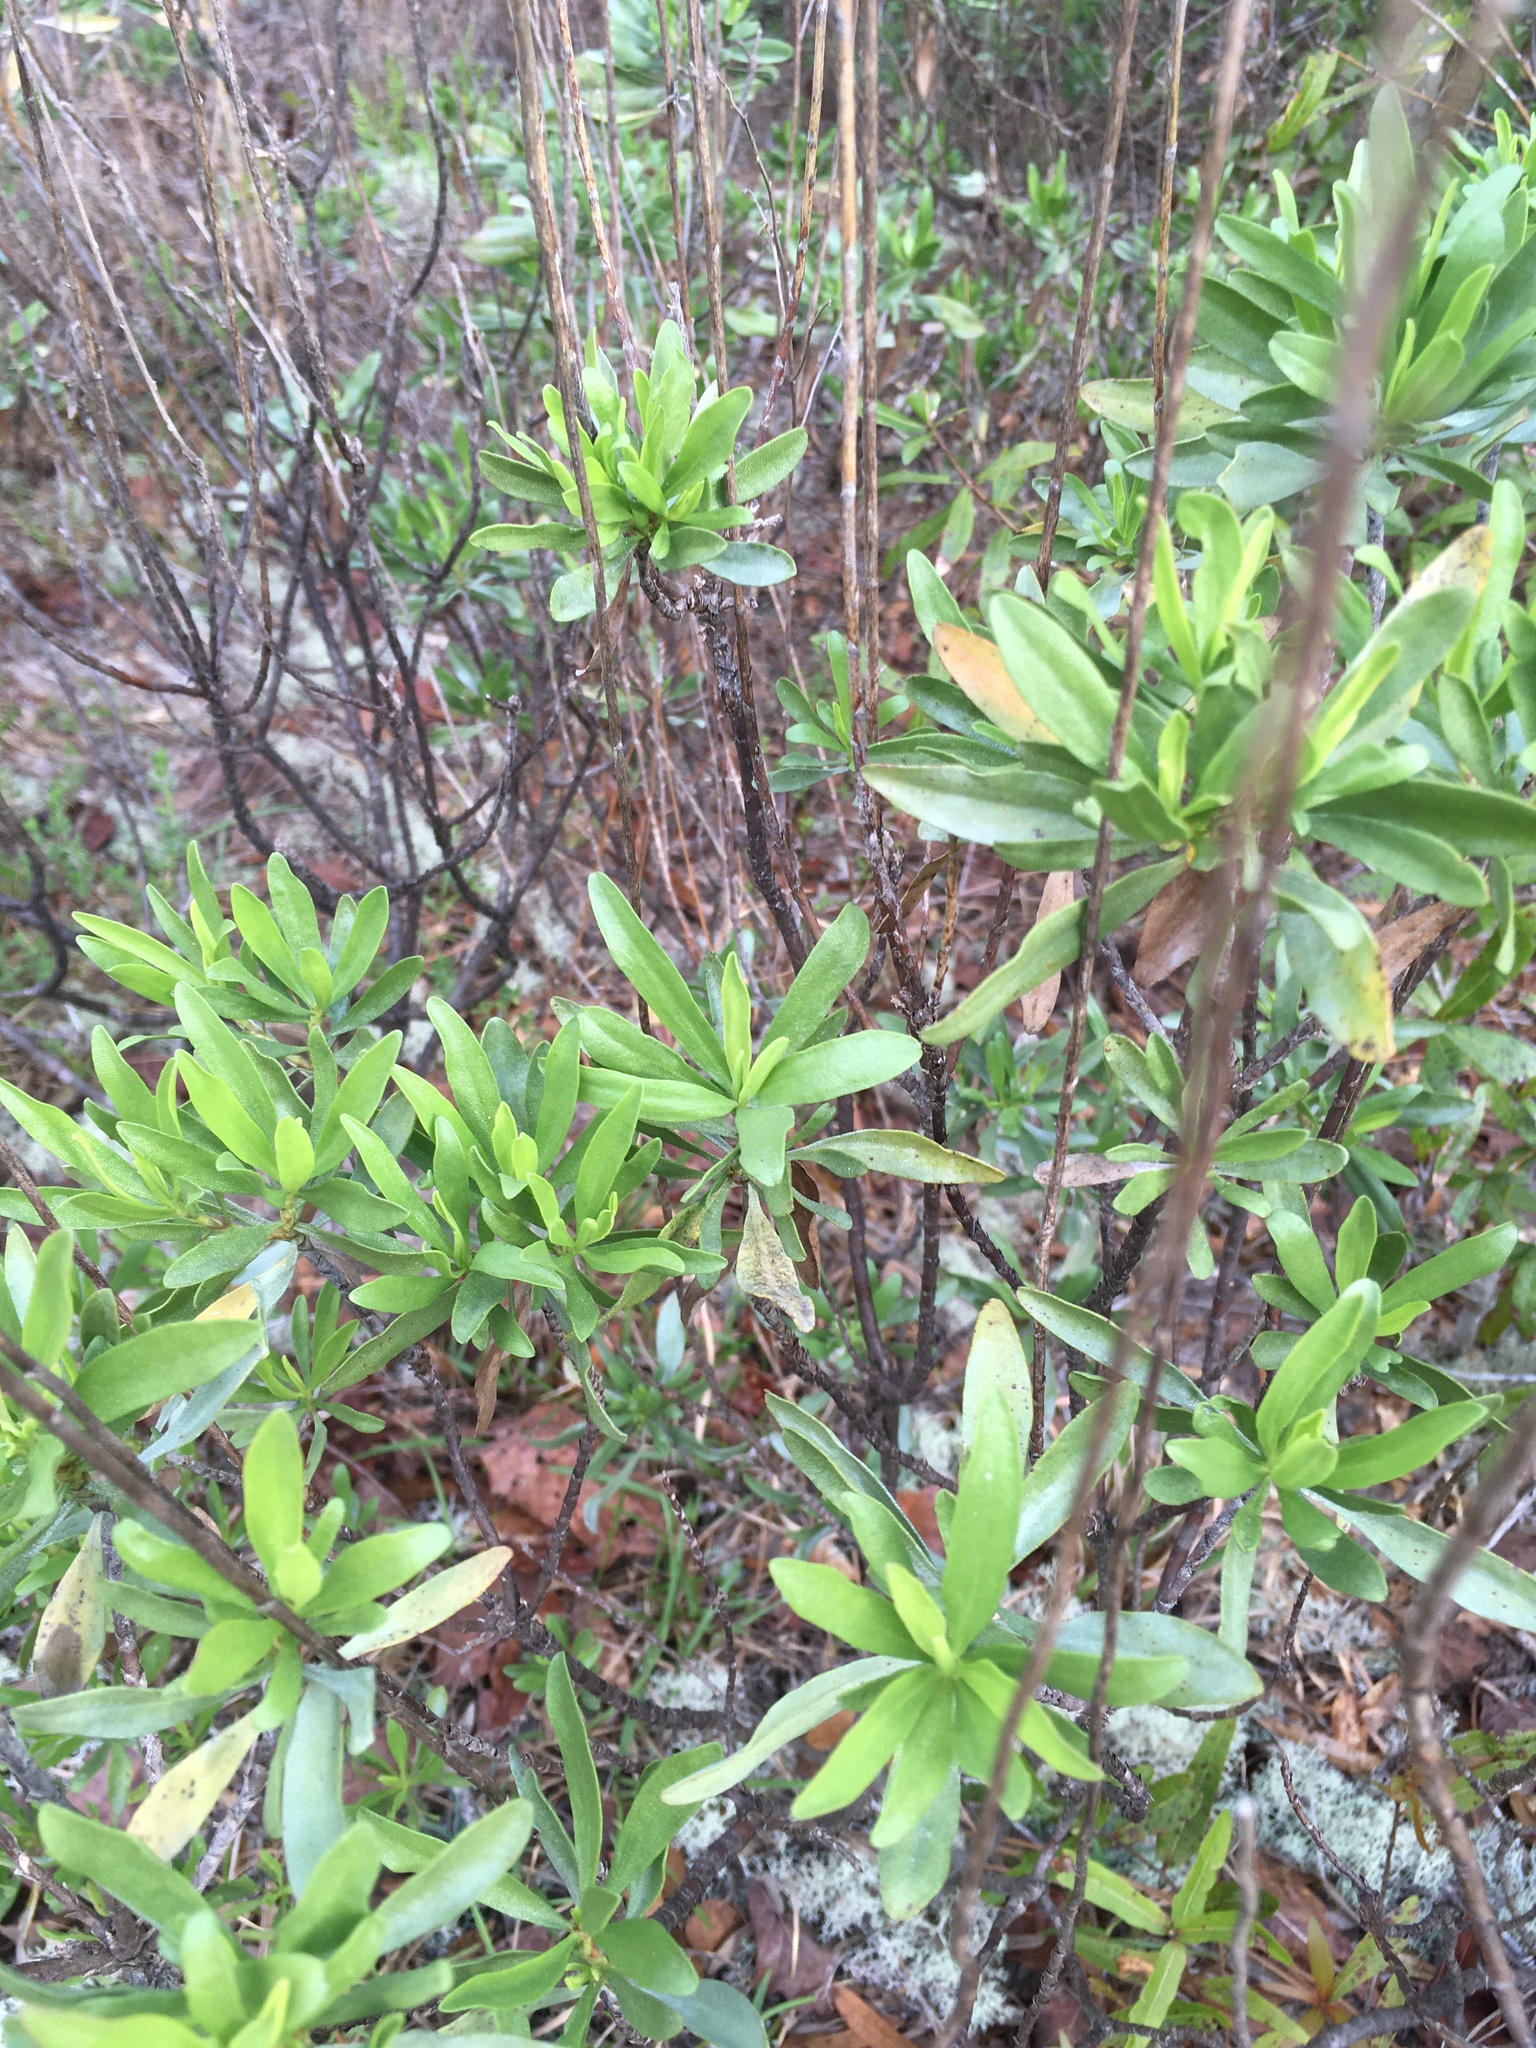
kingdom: Plantae
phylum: Tracheophyta
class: Magnoliopsida
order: Asterales
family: Asteraceae
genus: Chrysoma
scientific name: Chrysoma pauciflosculosa
